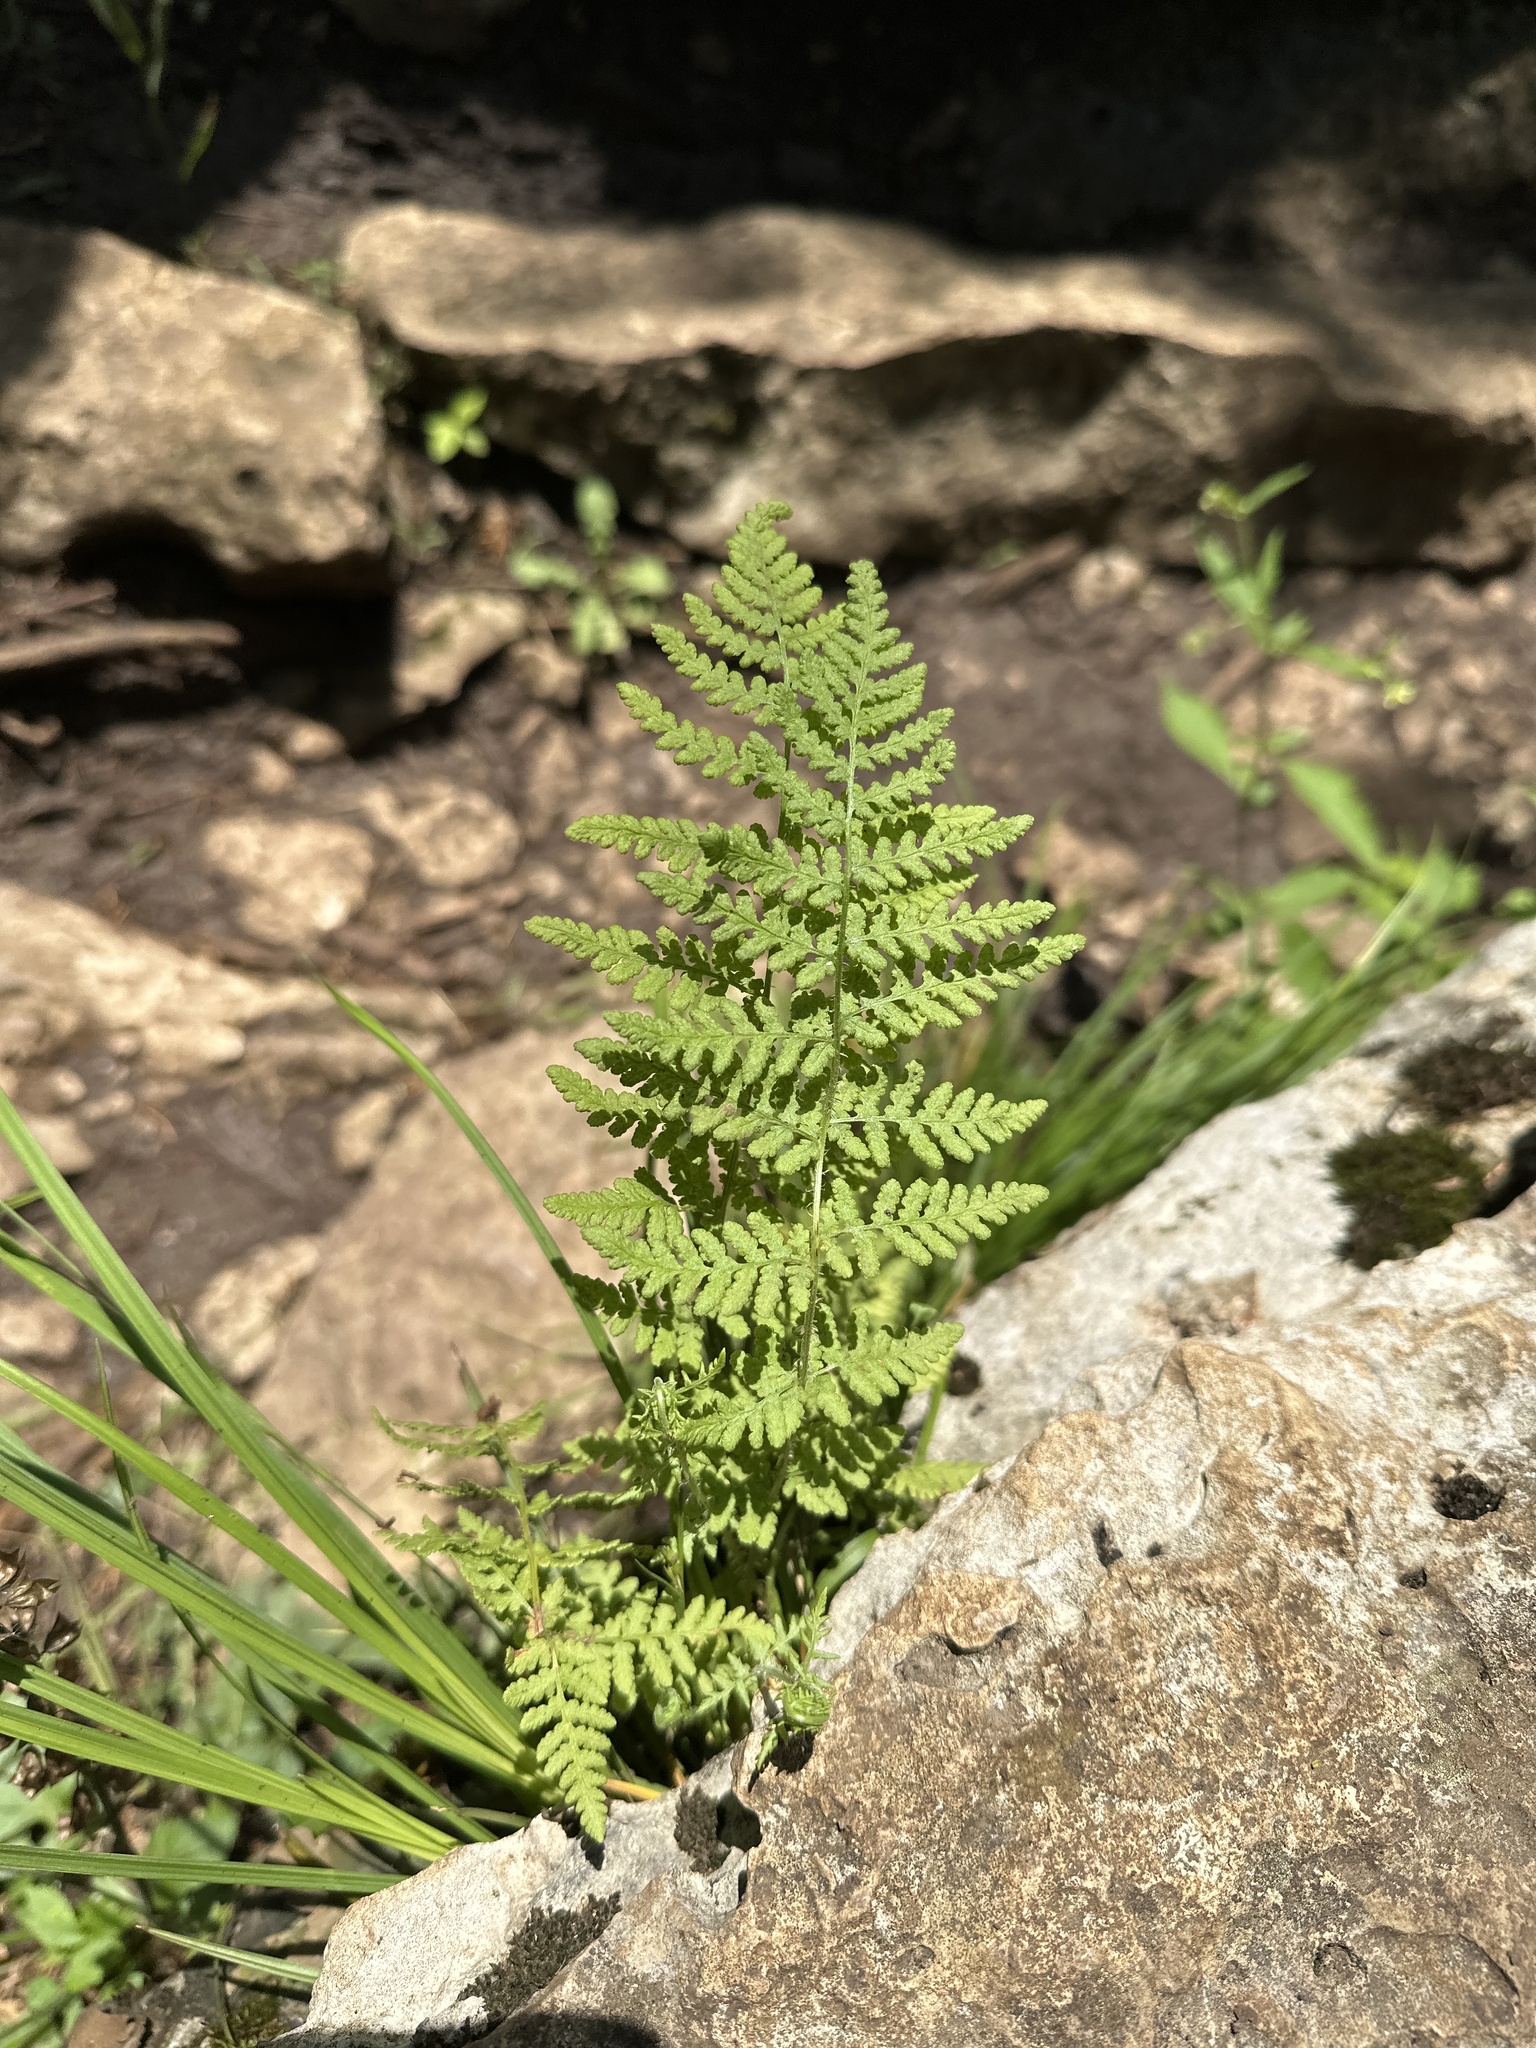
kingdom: Plantae
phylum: Tracheophyta
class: Polypodiopsida
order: Polypodiales
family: Woodsiaceae
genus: Physematium
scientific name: Physematium obtusum
